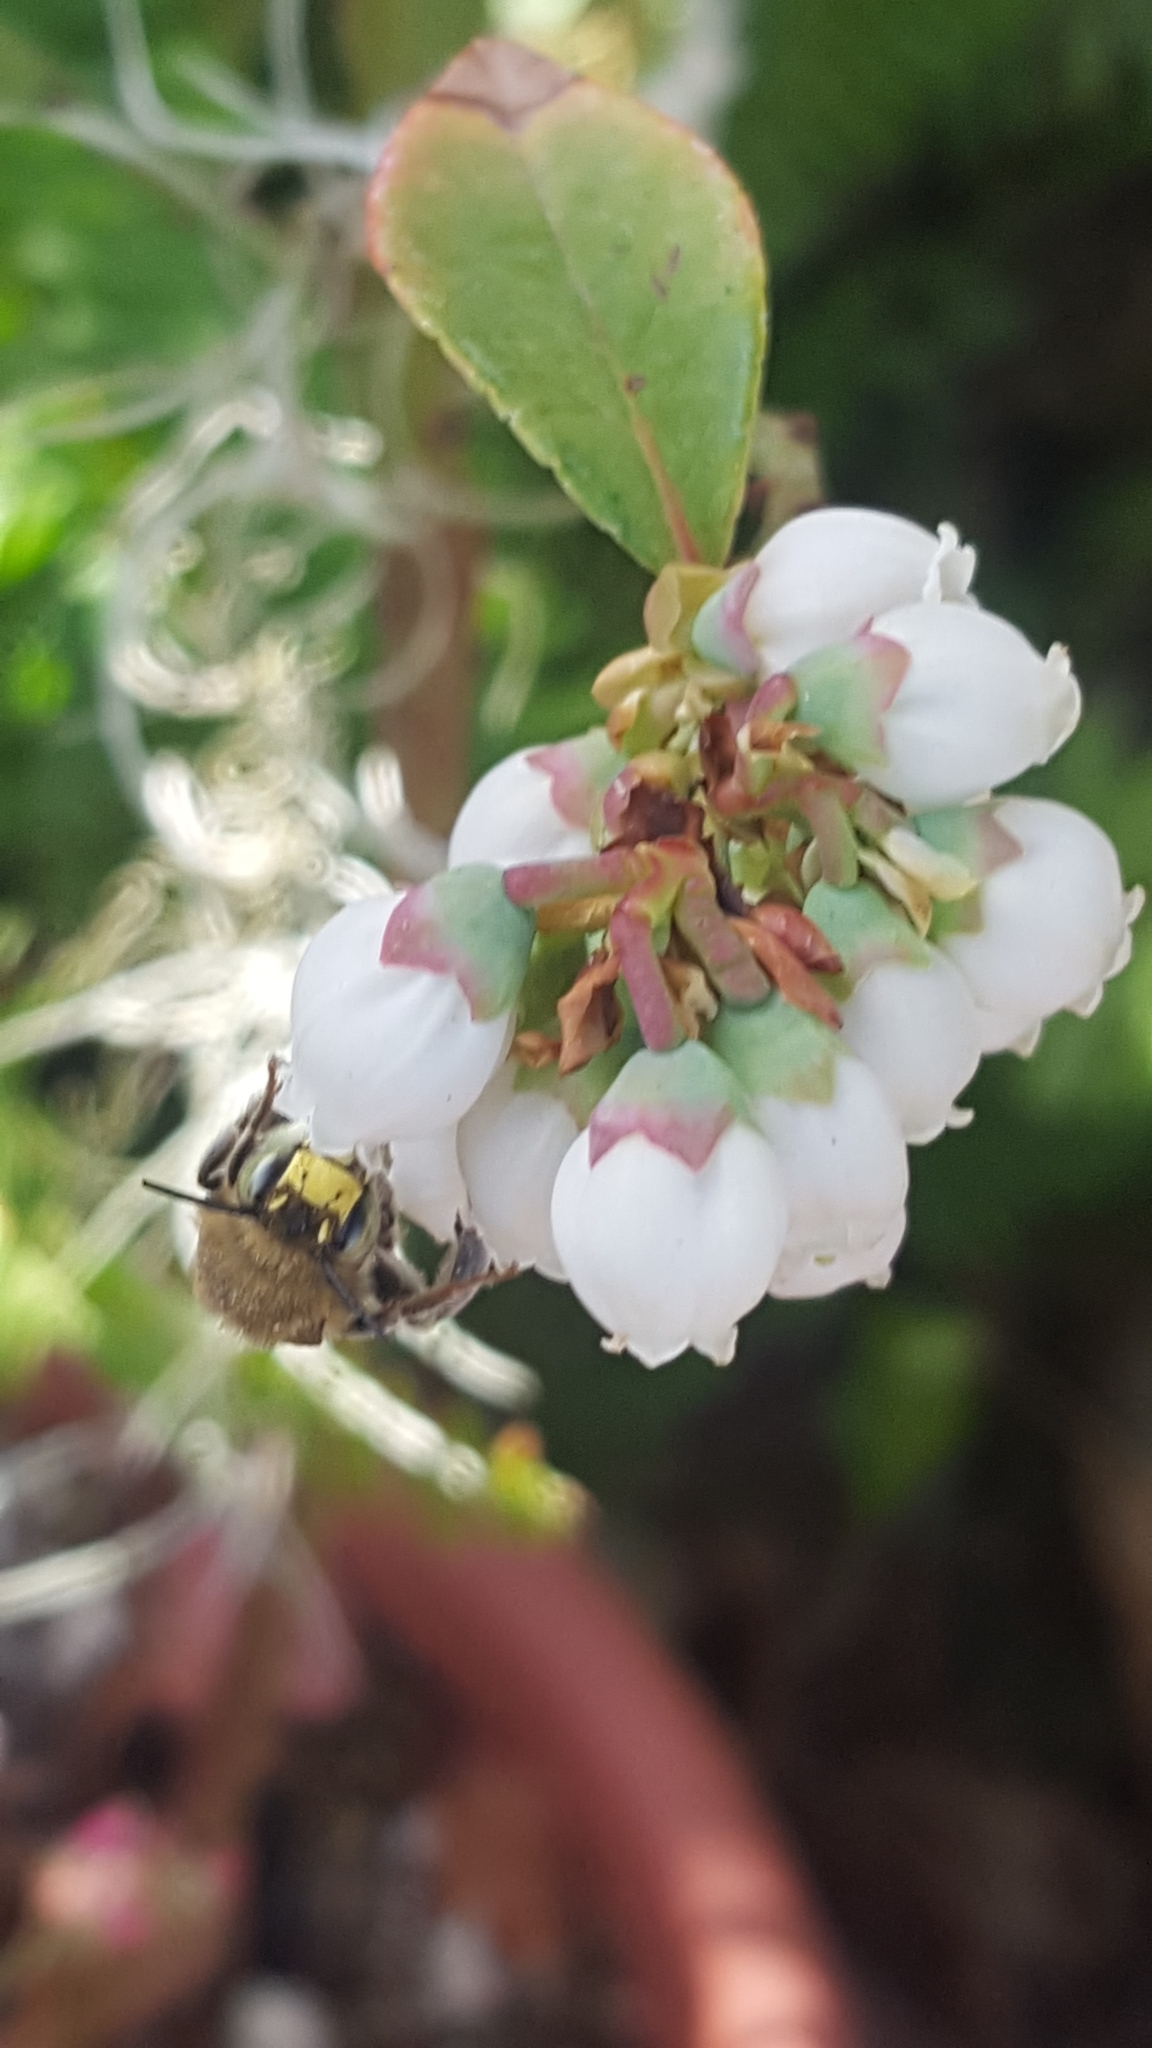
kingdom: Animalia
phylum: Arthropoda
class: Insecta
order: Hymenoptera
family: Apidae
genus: Anthophora
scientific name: Anthophora californica
